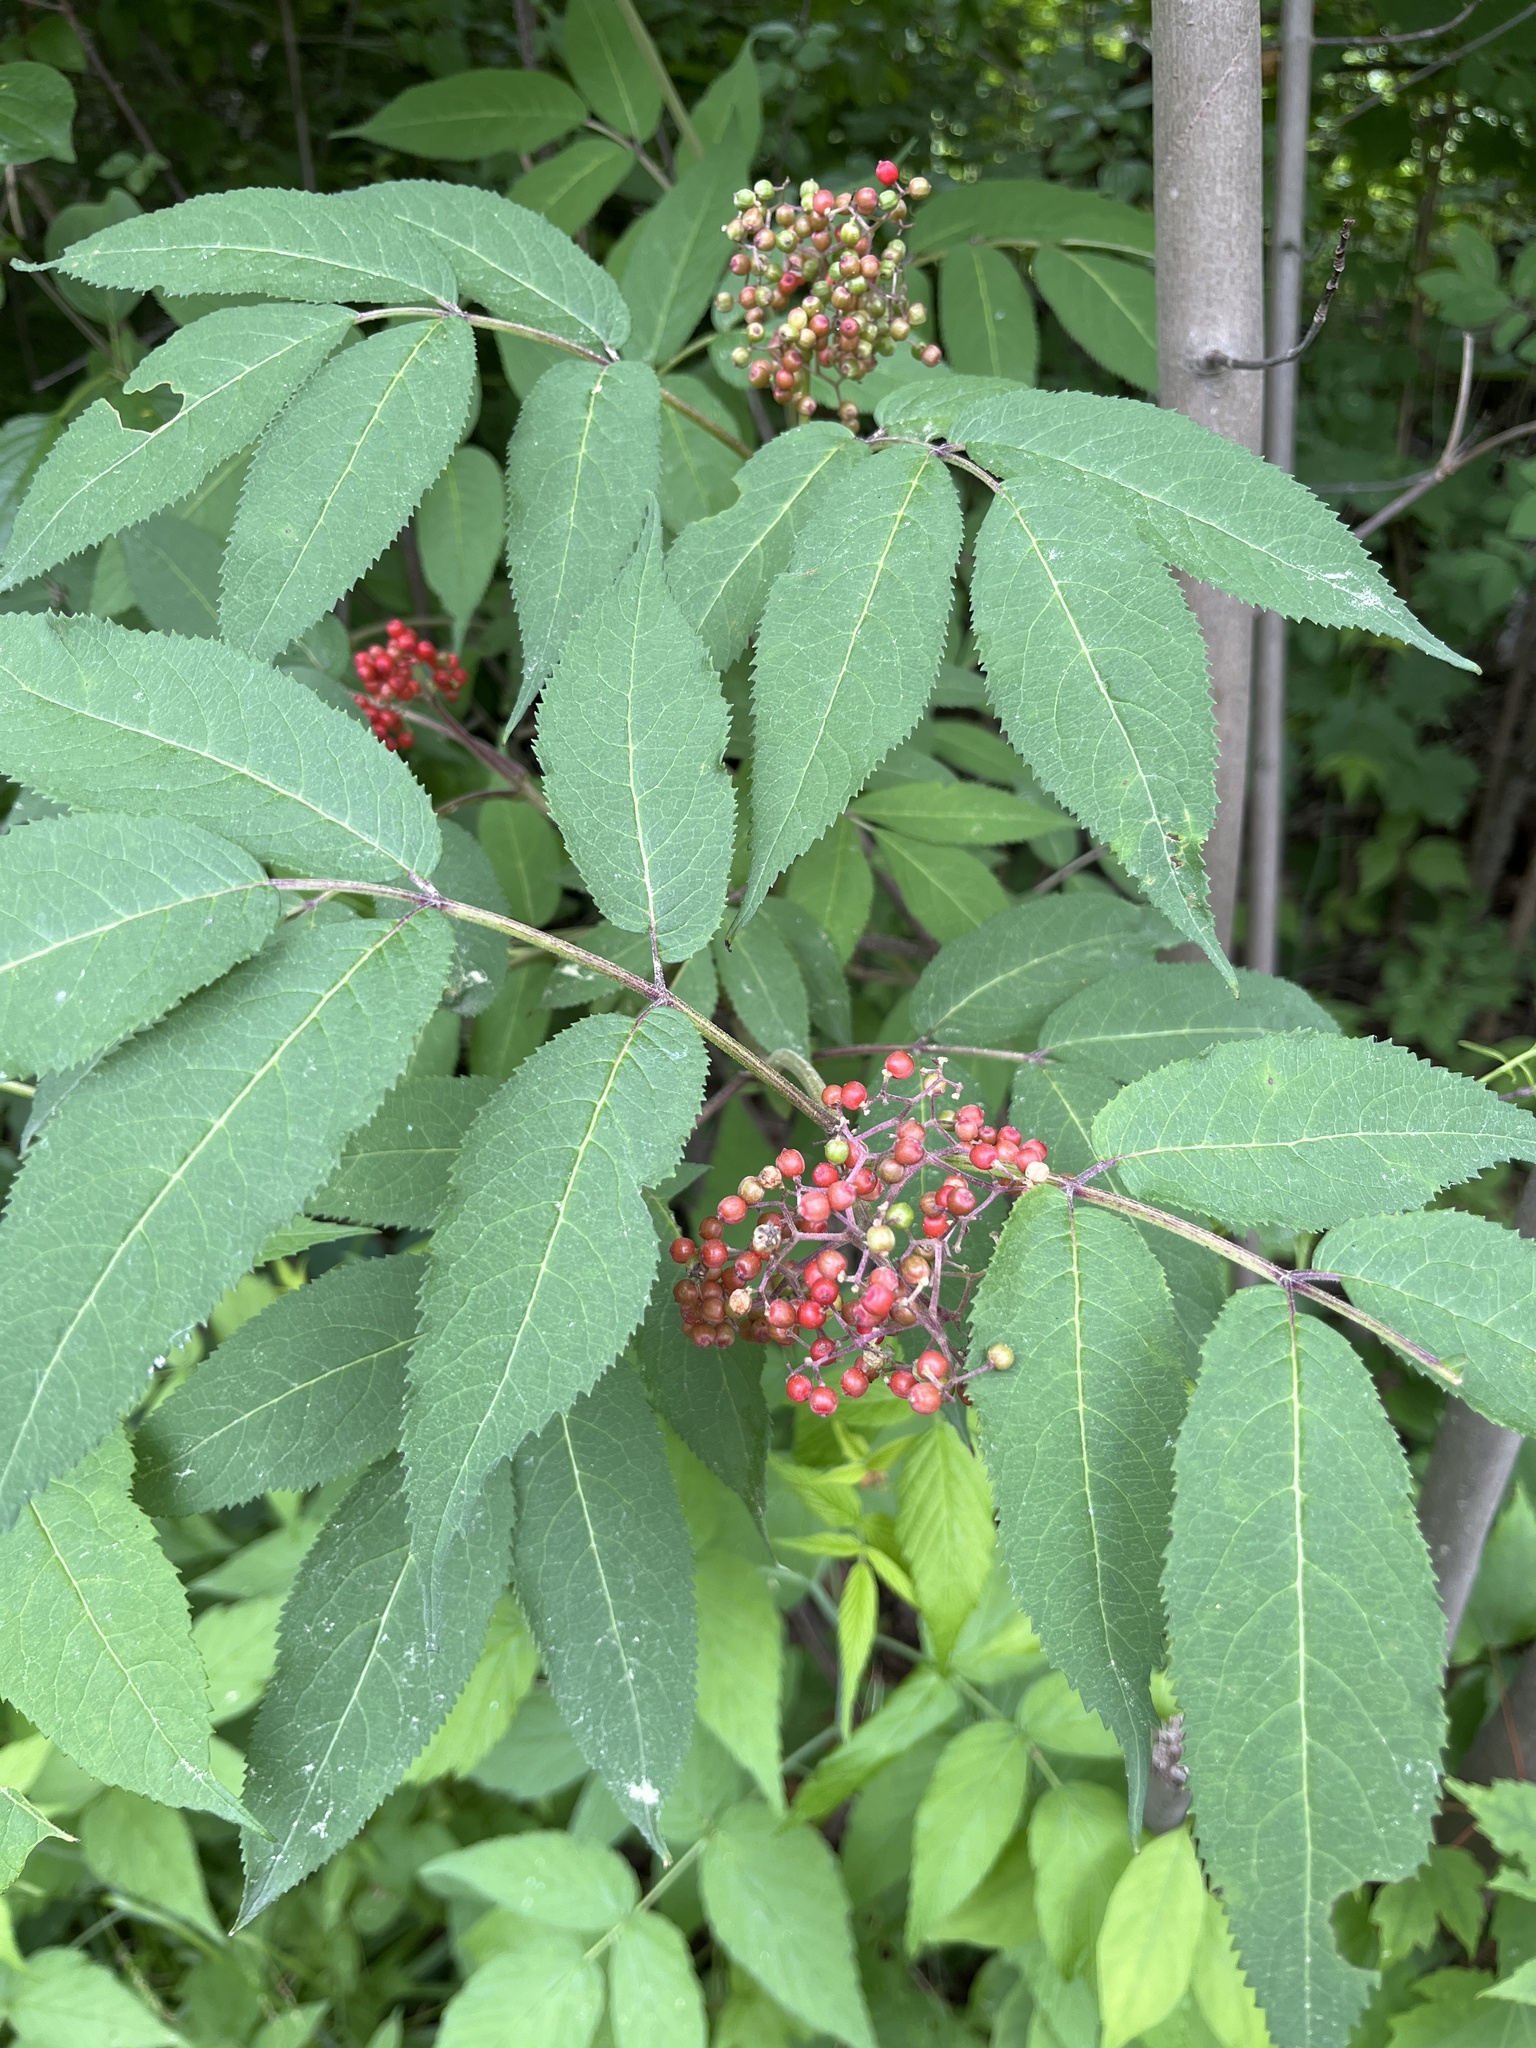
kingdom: Plantae
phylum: Tracheophyta
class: Magnoliopsida
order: Dipsacales
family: Viburnaceae
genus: Sambucus
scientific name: Sambucus racemosa
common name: Red-berried elder
